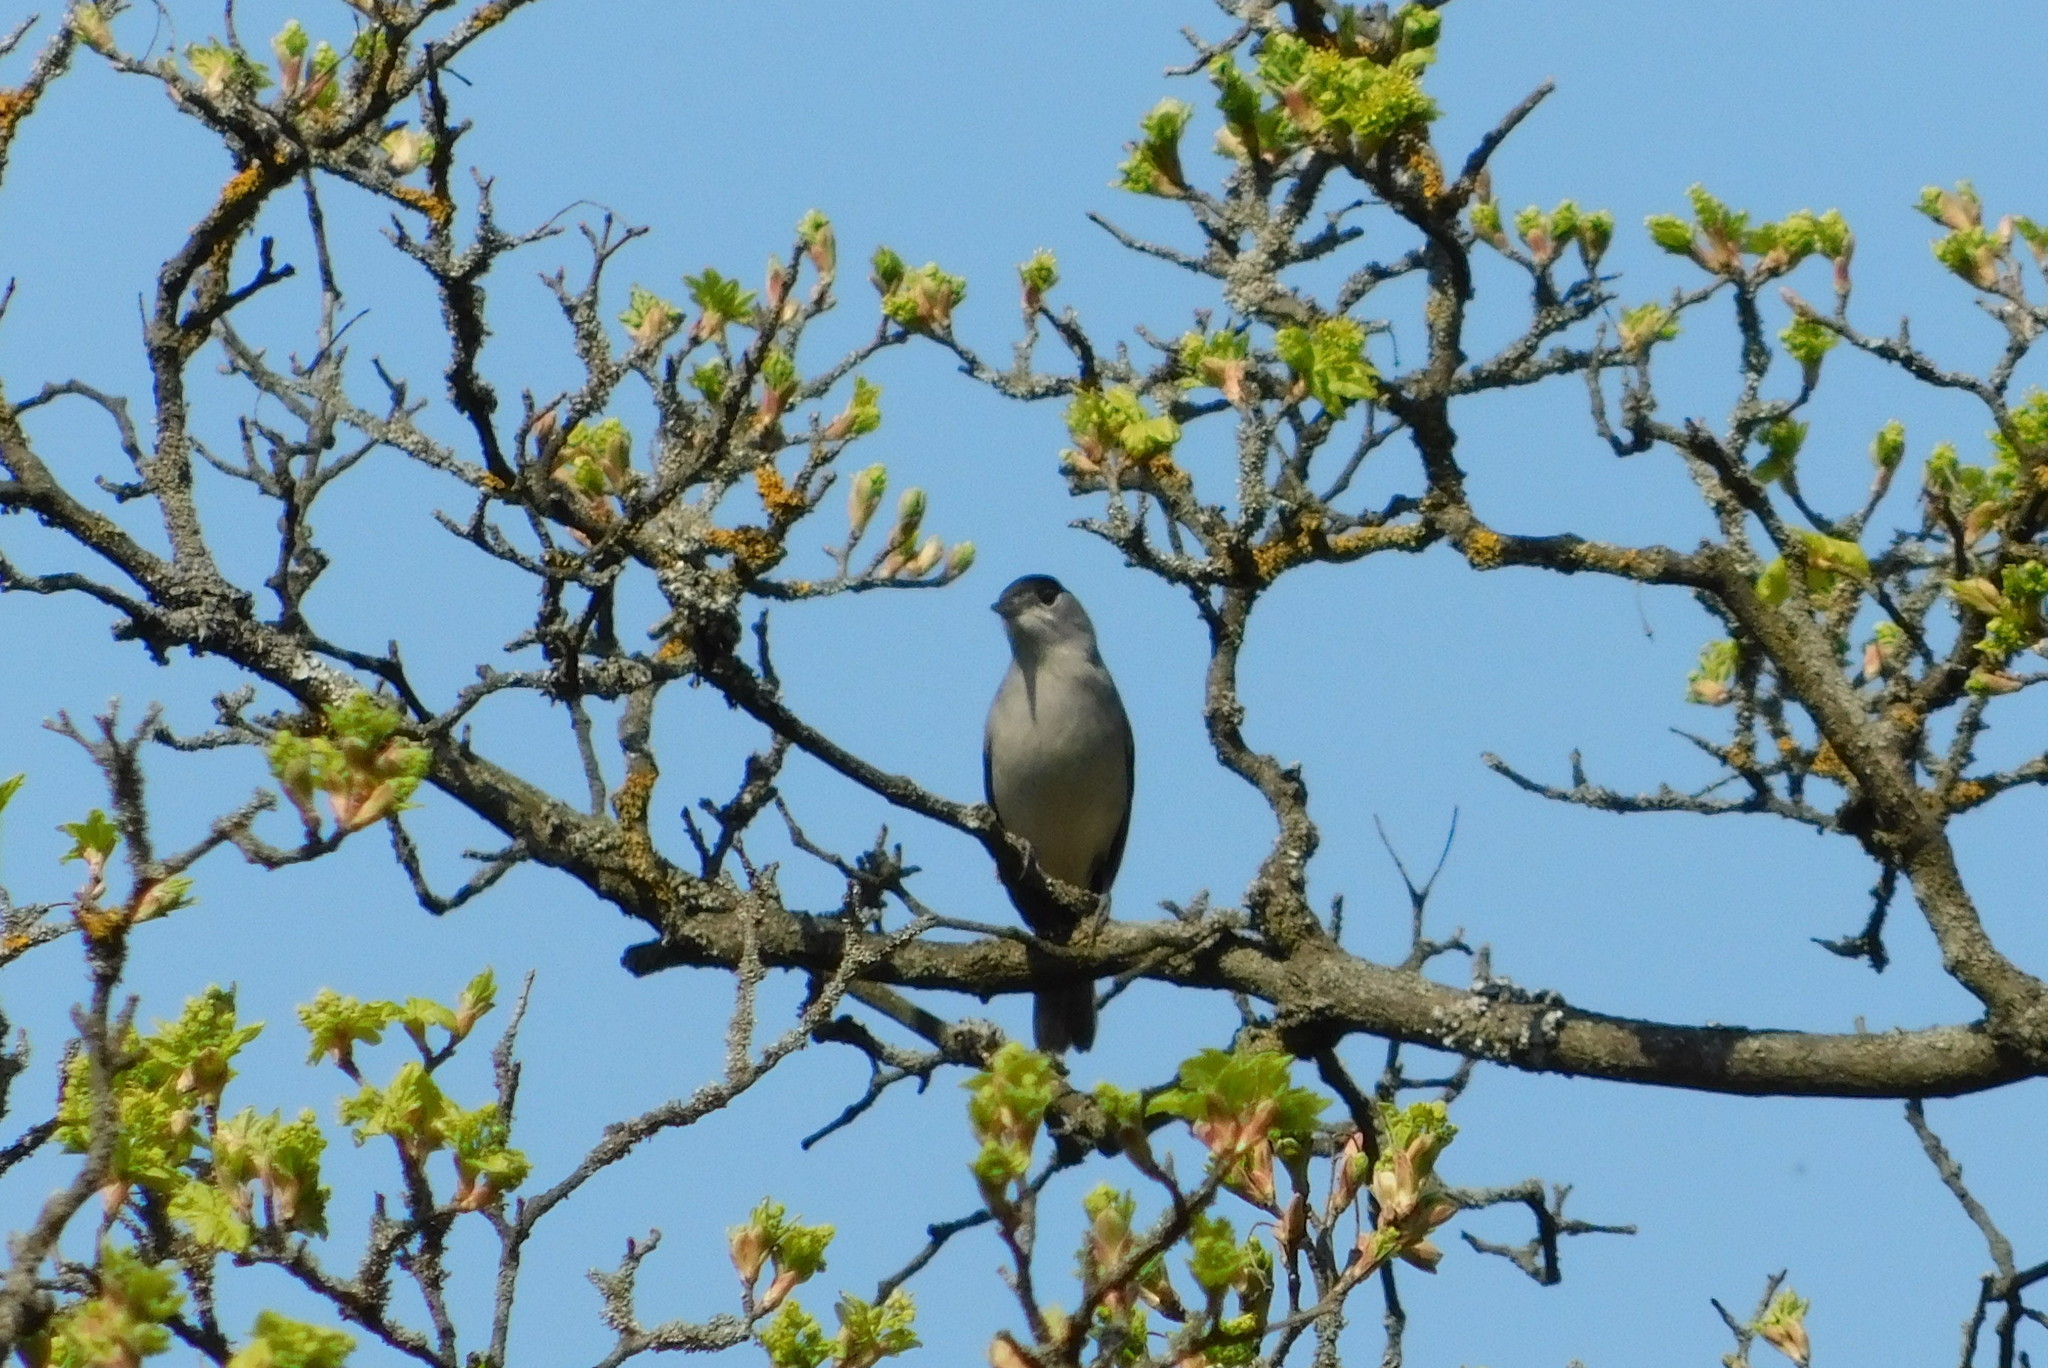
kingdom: Animalia
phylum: Chordata
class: Aves
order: Passeriformes
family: Sylviidae
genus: Sylvia
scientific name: Sylvia atricapilla
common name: Eurasian blackcap
